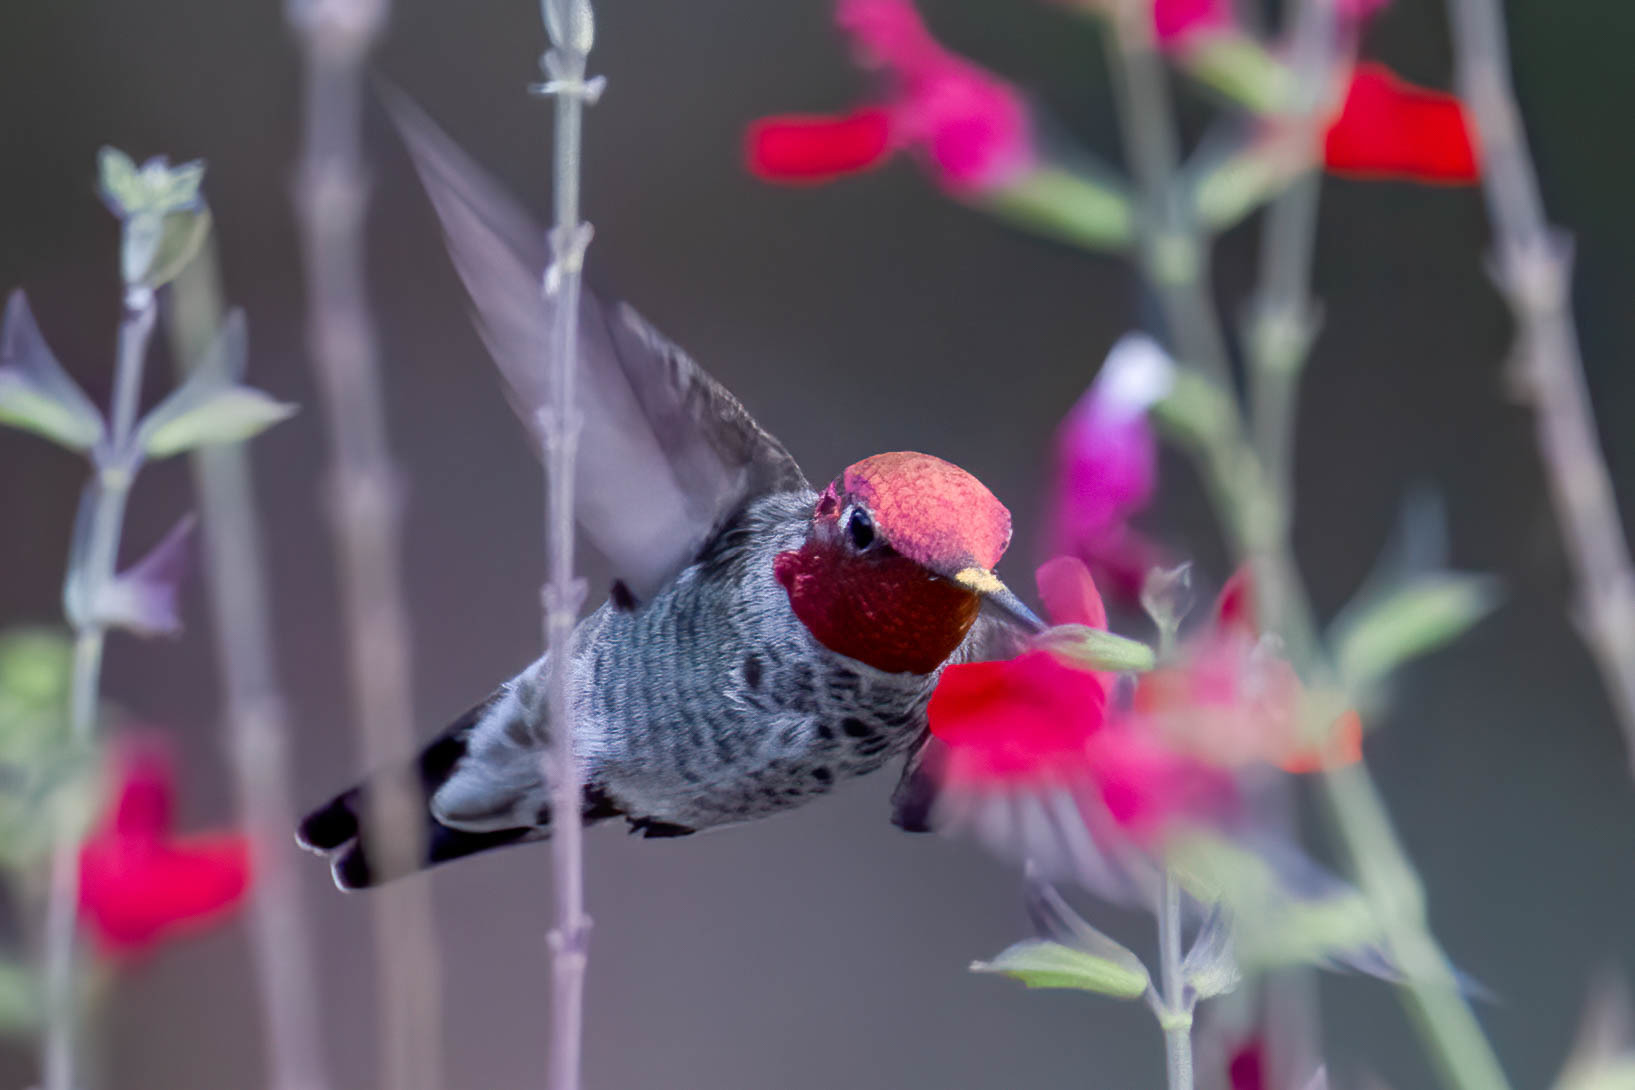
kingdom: Animalia
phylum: Chordata
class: Aves
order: Apodiformes
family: Trochilidae
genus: Calypte
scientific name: Calypte anna
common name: Anna's hummingbird
